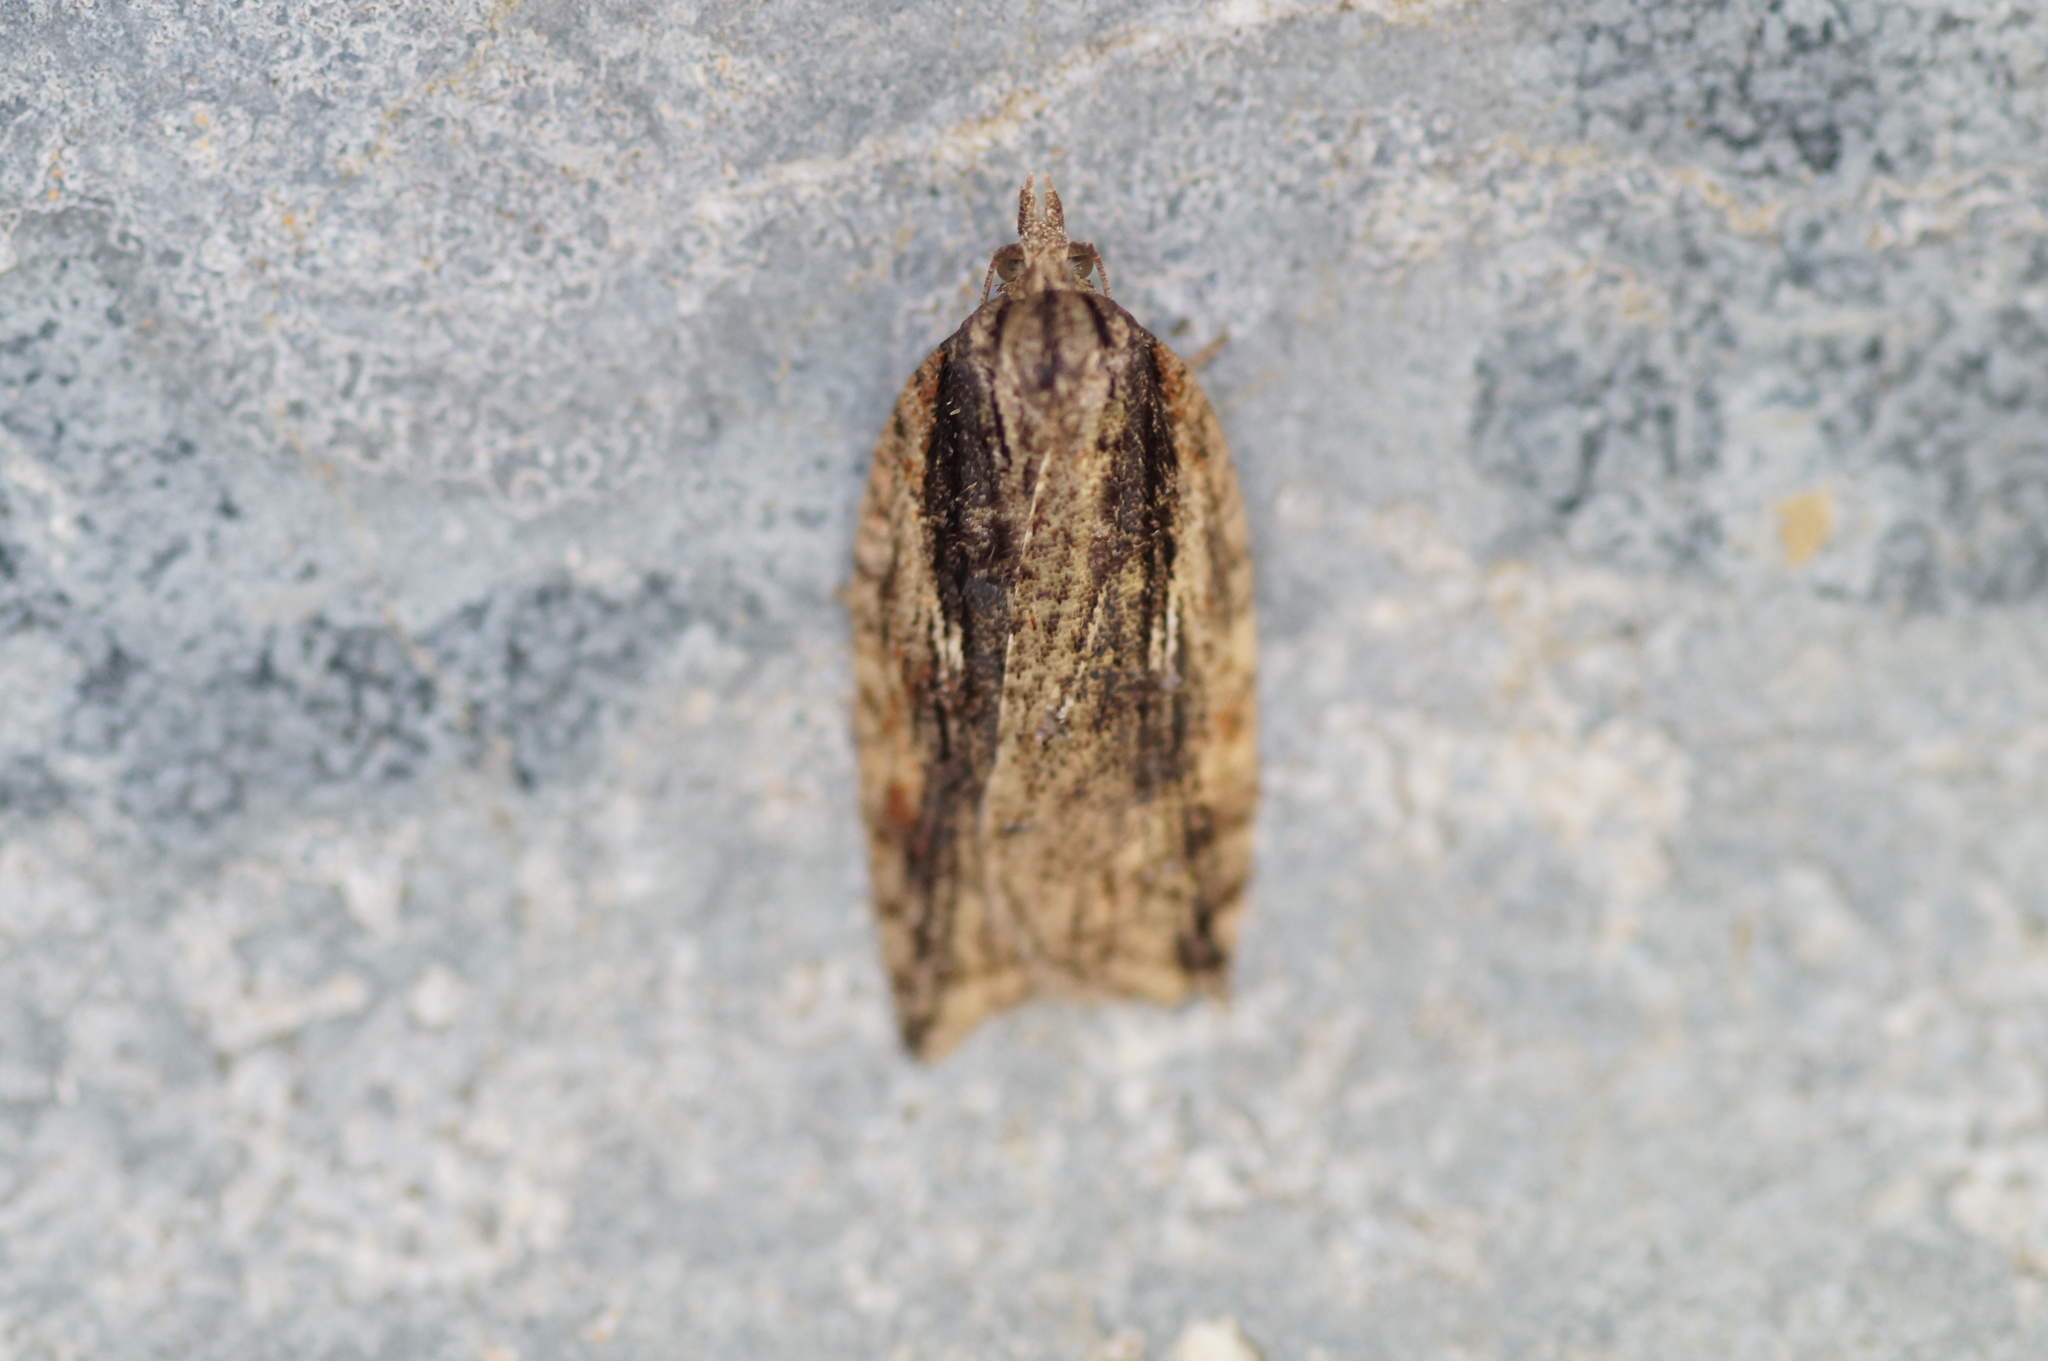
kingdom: Animalia
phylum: Arthropoda
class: Insecta
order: Lepidoptera
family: Tortricidae
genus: Acleris
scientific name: Acleris umbrana
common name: Dark-streaked button
